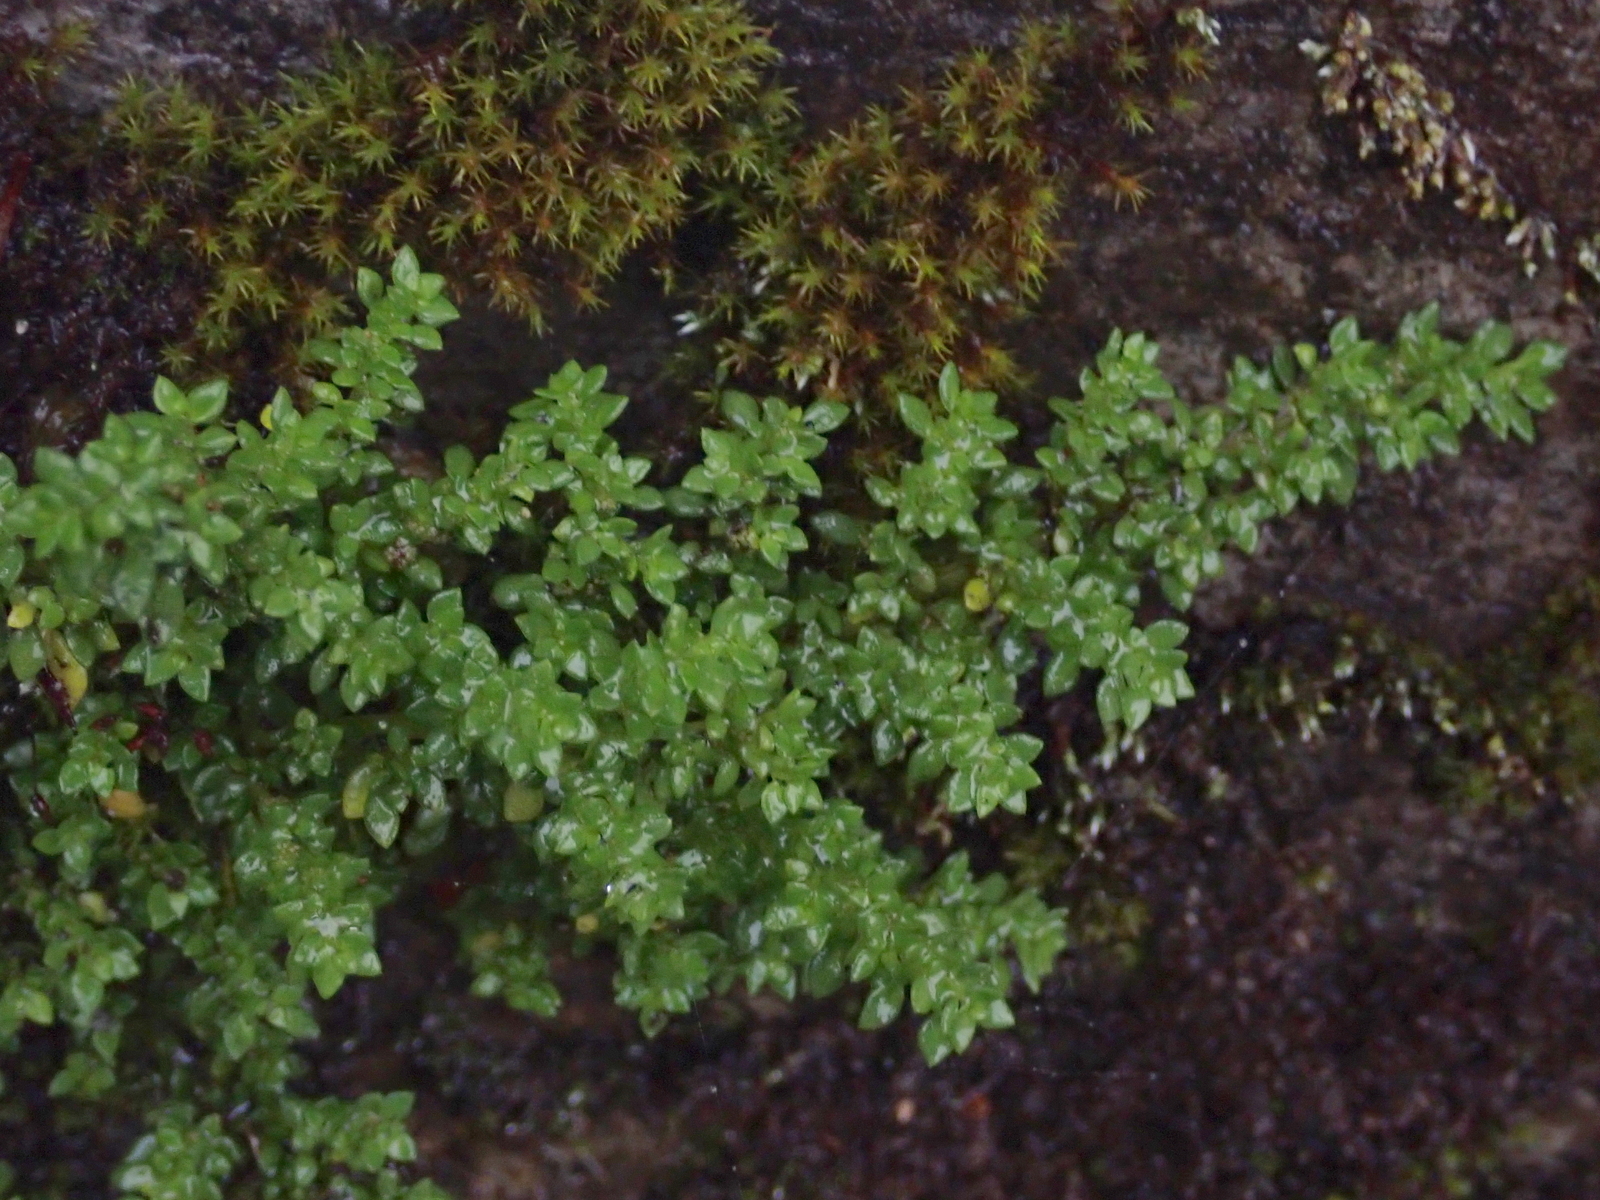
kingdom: Plantae
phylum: Tracheophyta
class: Magnoliopsida
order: Rosales
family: Urticaceae
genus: Pilea
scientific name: Pilea microphylla
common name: Artillery-plant
